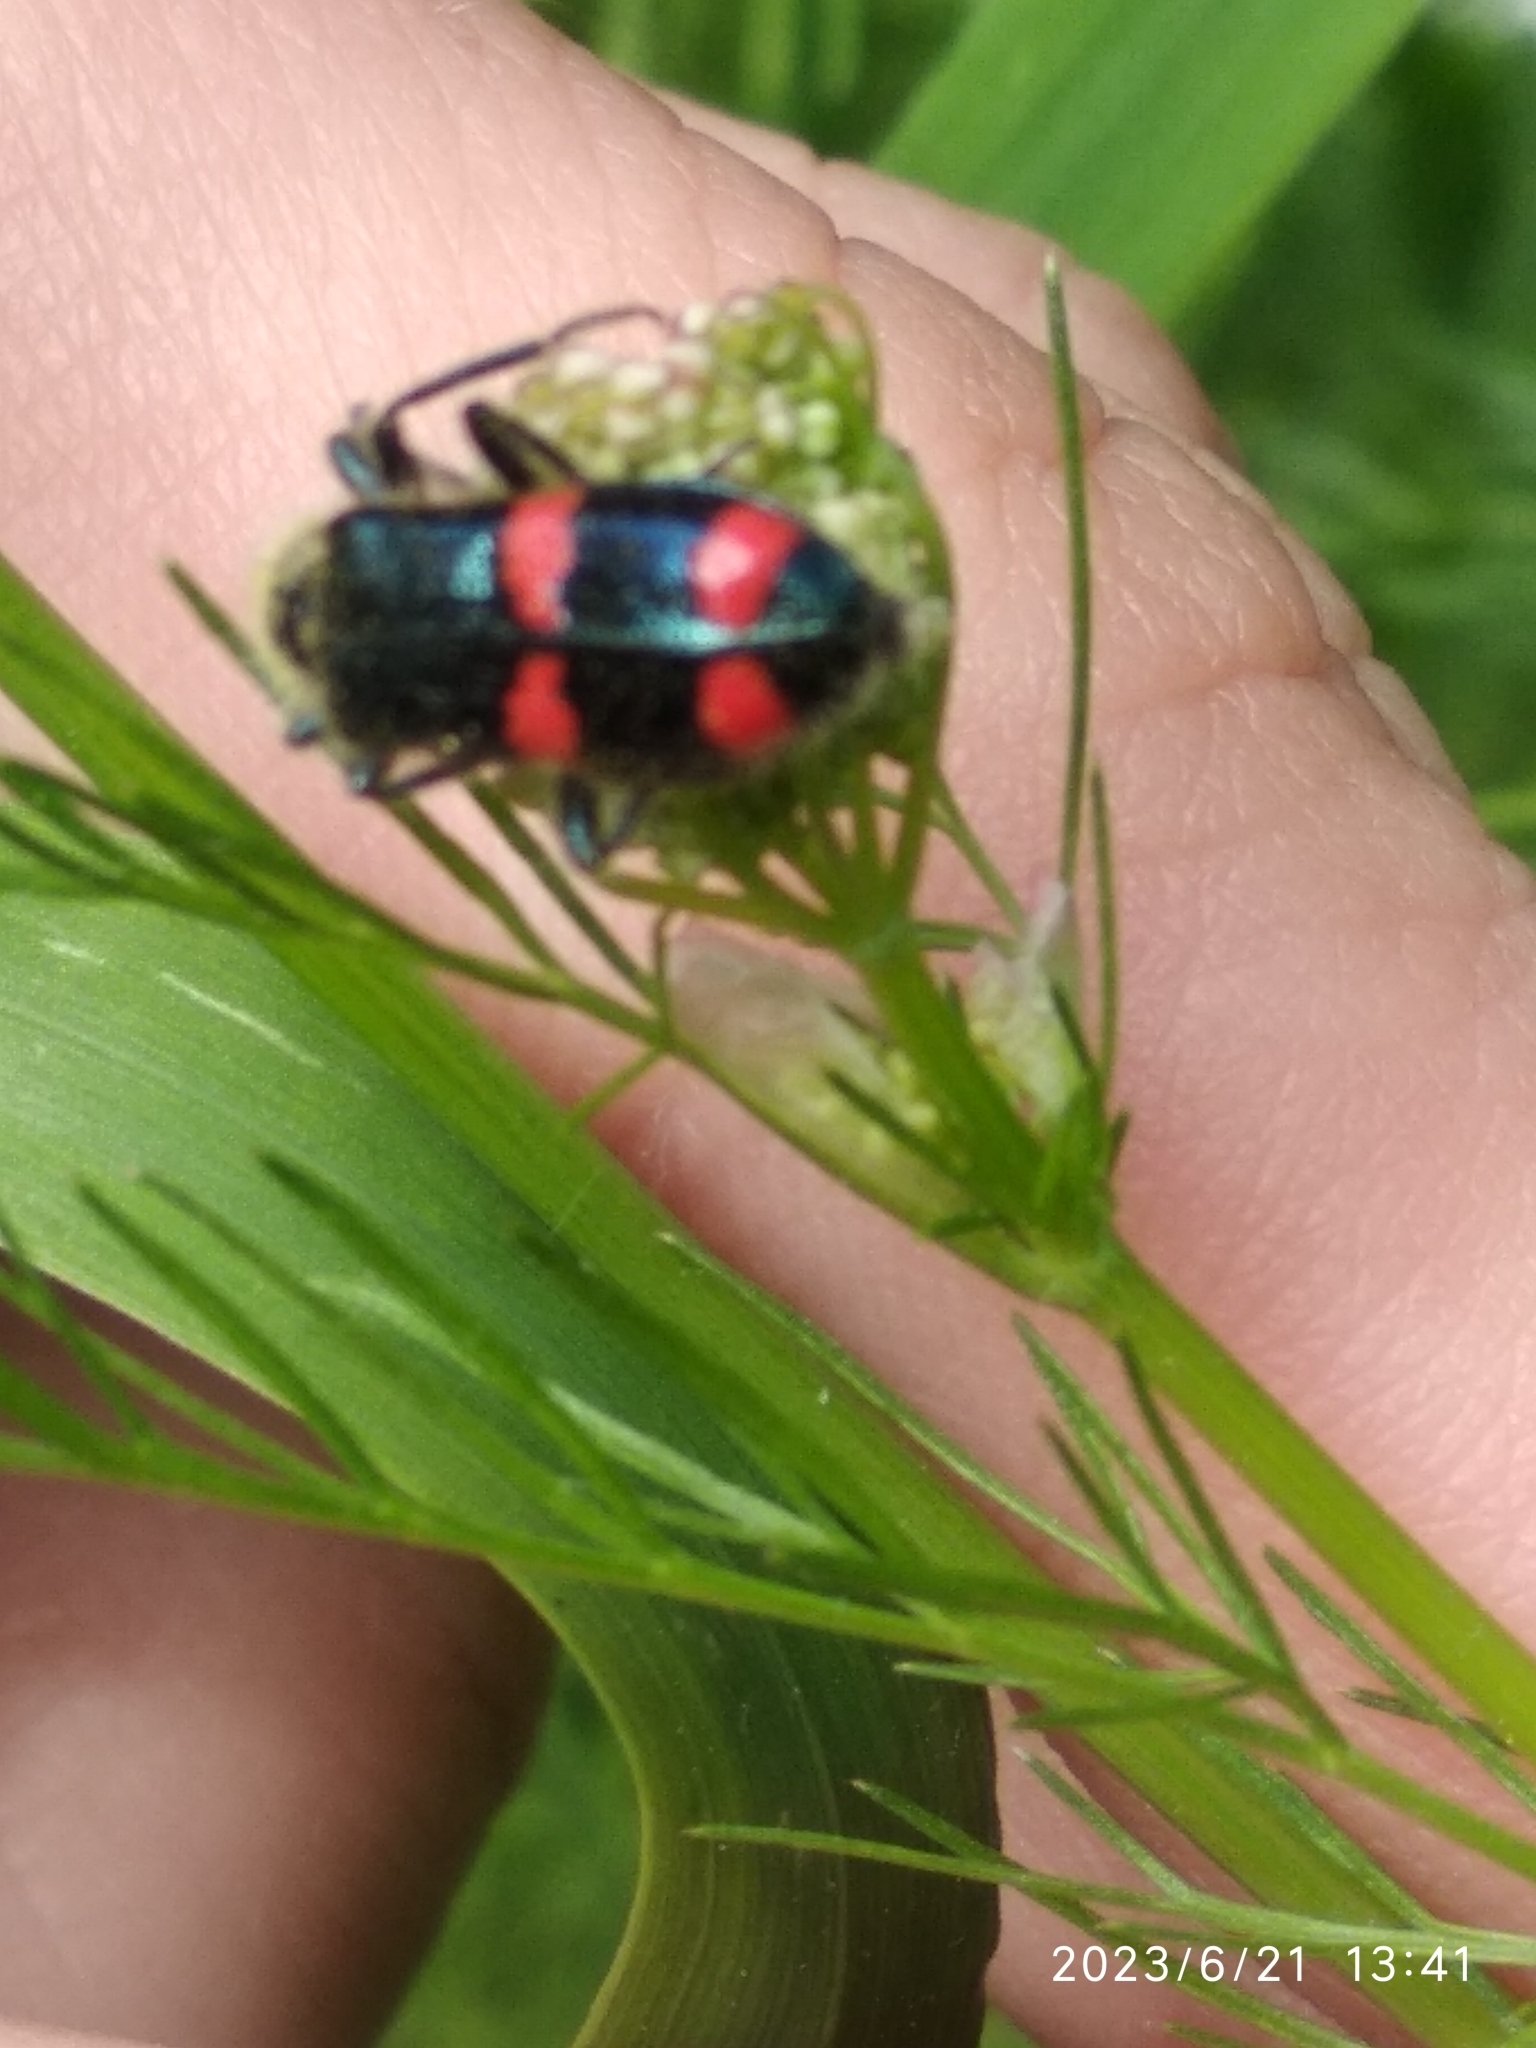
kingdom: Animalia
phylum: Arthropoda
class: Insecta
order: Coleoptera
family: Cleridae
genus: Trichodes
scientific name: Trichodes
